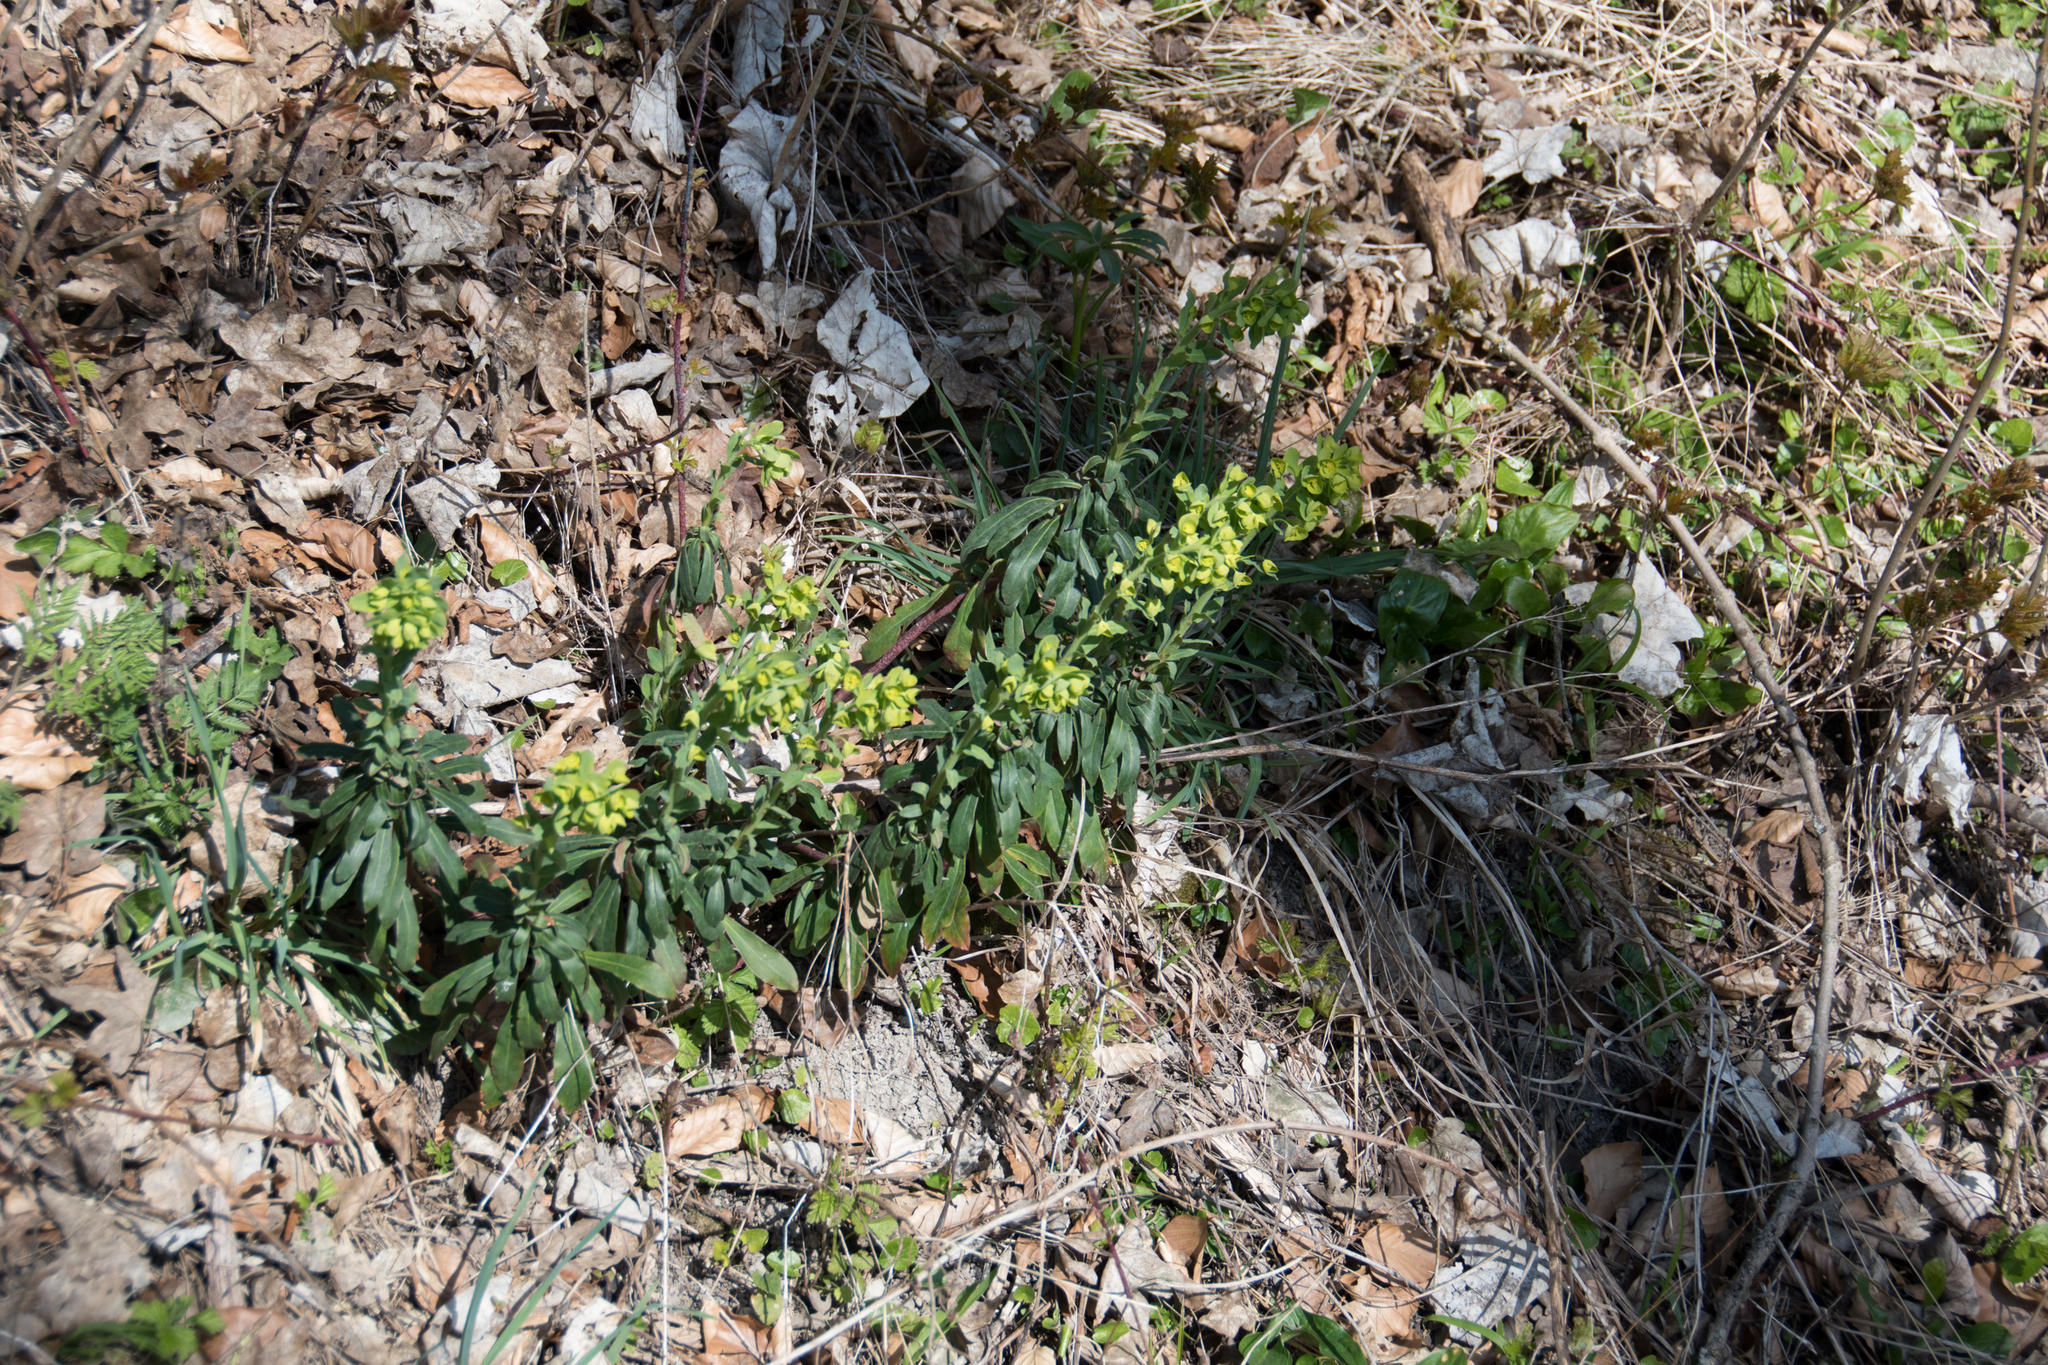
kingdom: Plantae
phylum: Tracheophyta
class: Magnoliopsida
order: Malpighiales
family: Euphorbiaceae
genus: Euphorbia
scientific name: Euphorbia amygdaloides
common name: Wood spurge
